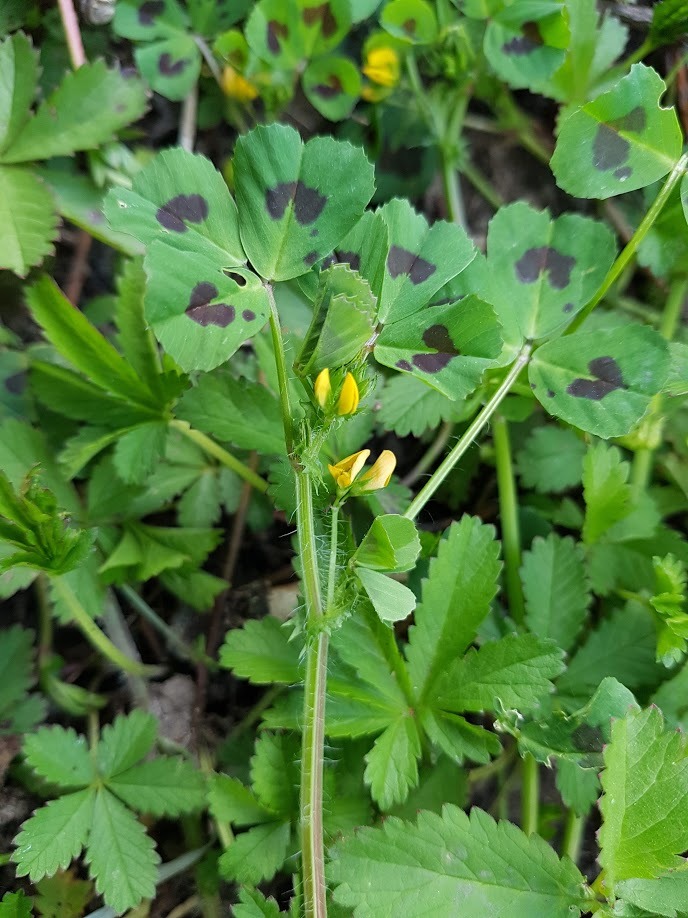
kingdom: Plantae
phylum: Tracheophyta
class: Magnoliopsida
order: Fabales
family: Fabaceae
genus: Medicago
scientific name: Medicago arabica
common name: Spotted medick
